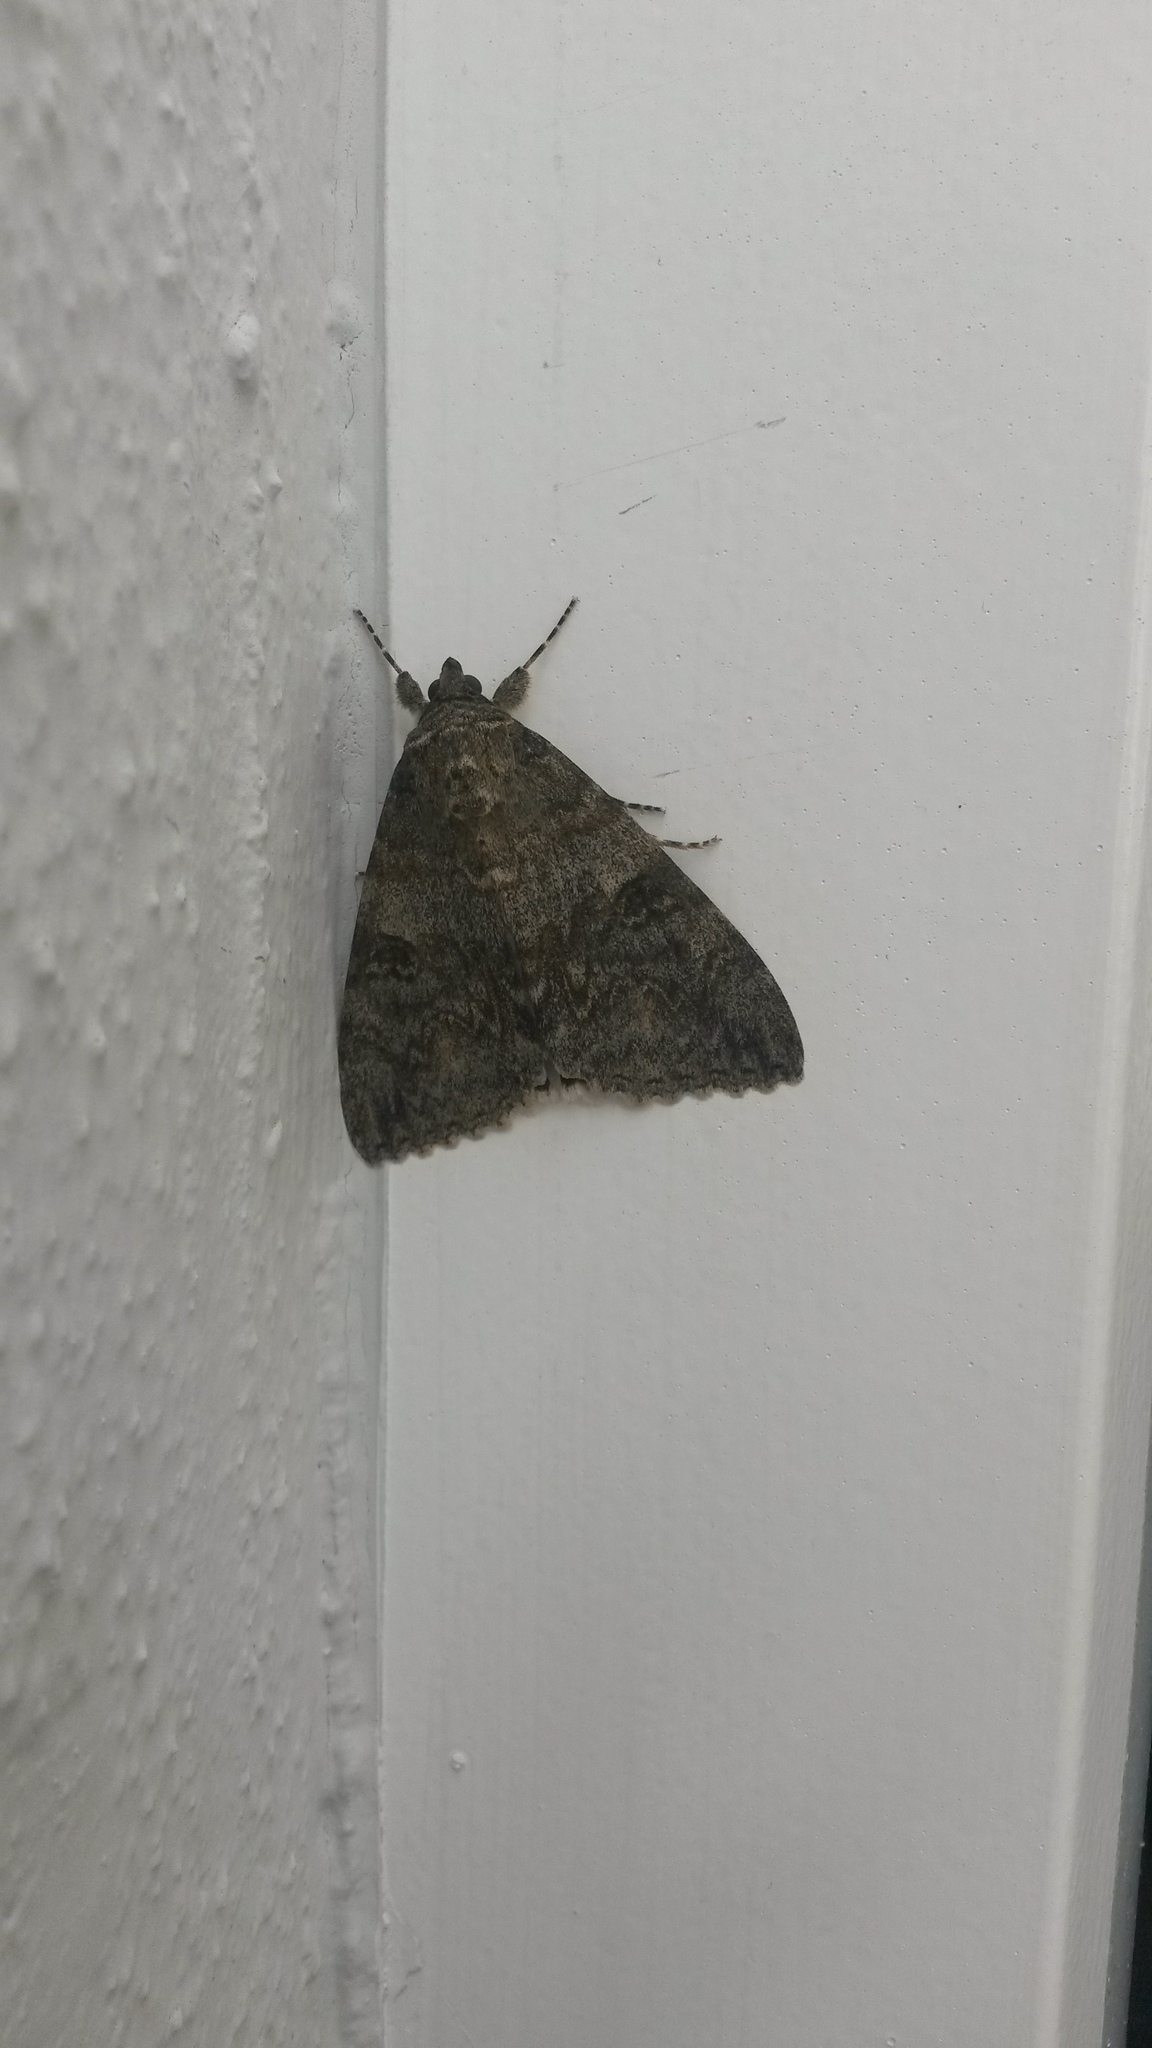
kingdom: Animalia
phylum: Arthropoda
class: Insecta
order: Lepidoptera
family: Erebidae
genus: Catocala
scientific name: Catocala nupta
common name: Red underwing
